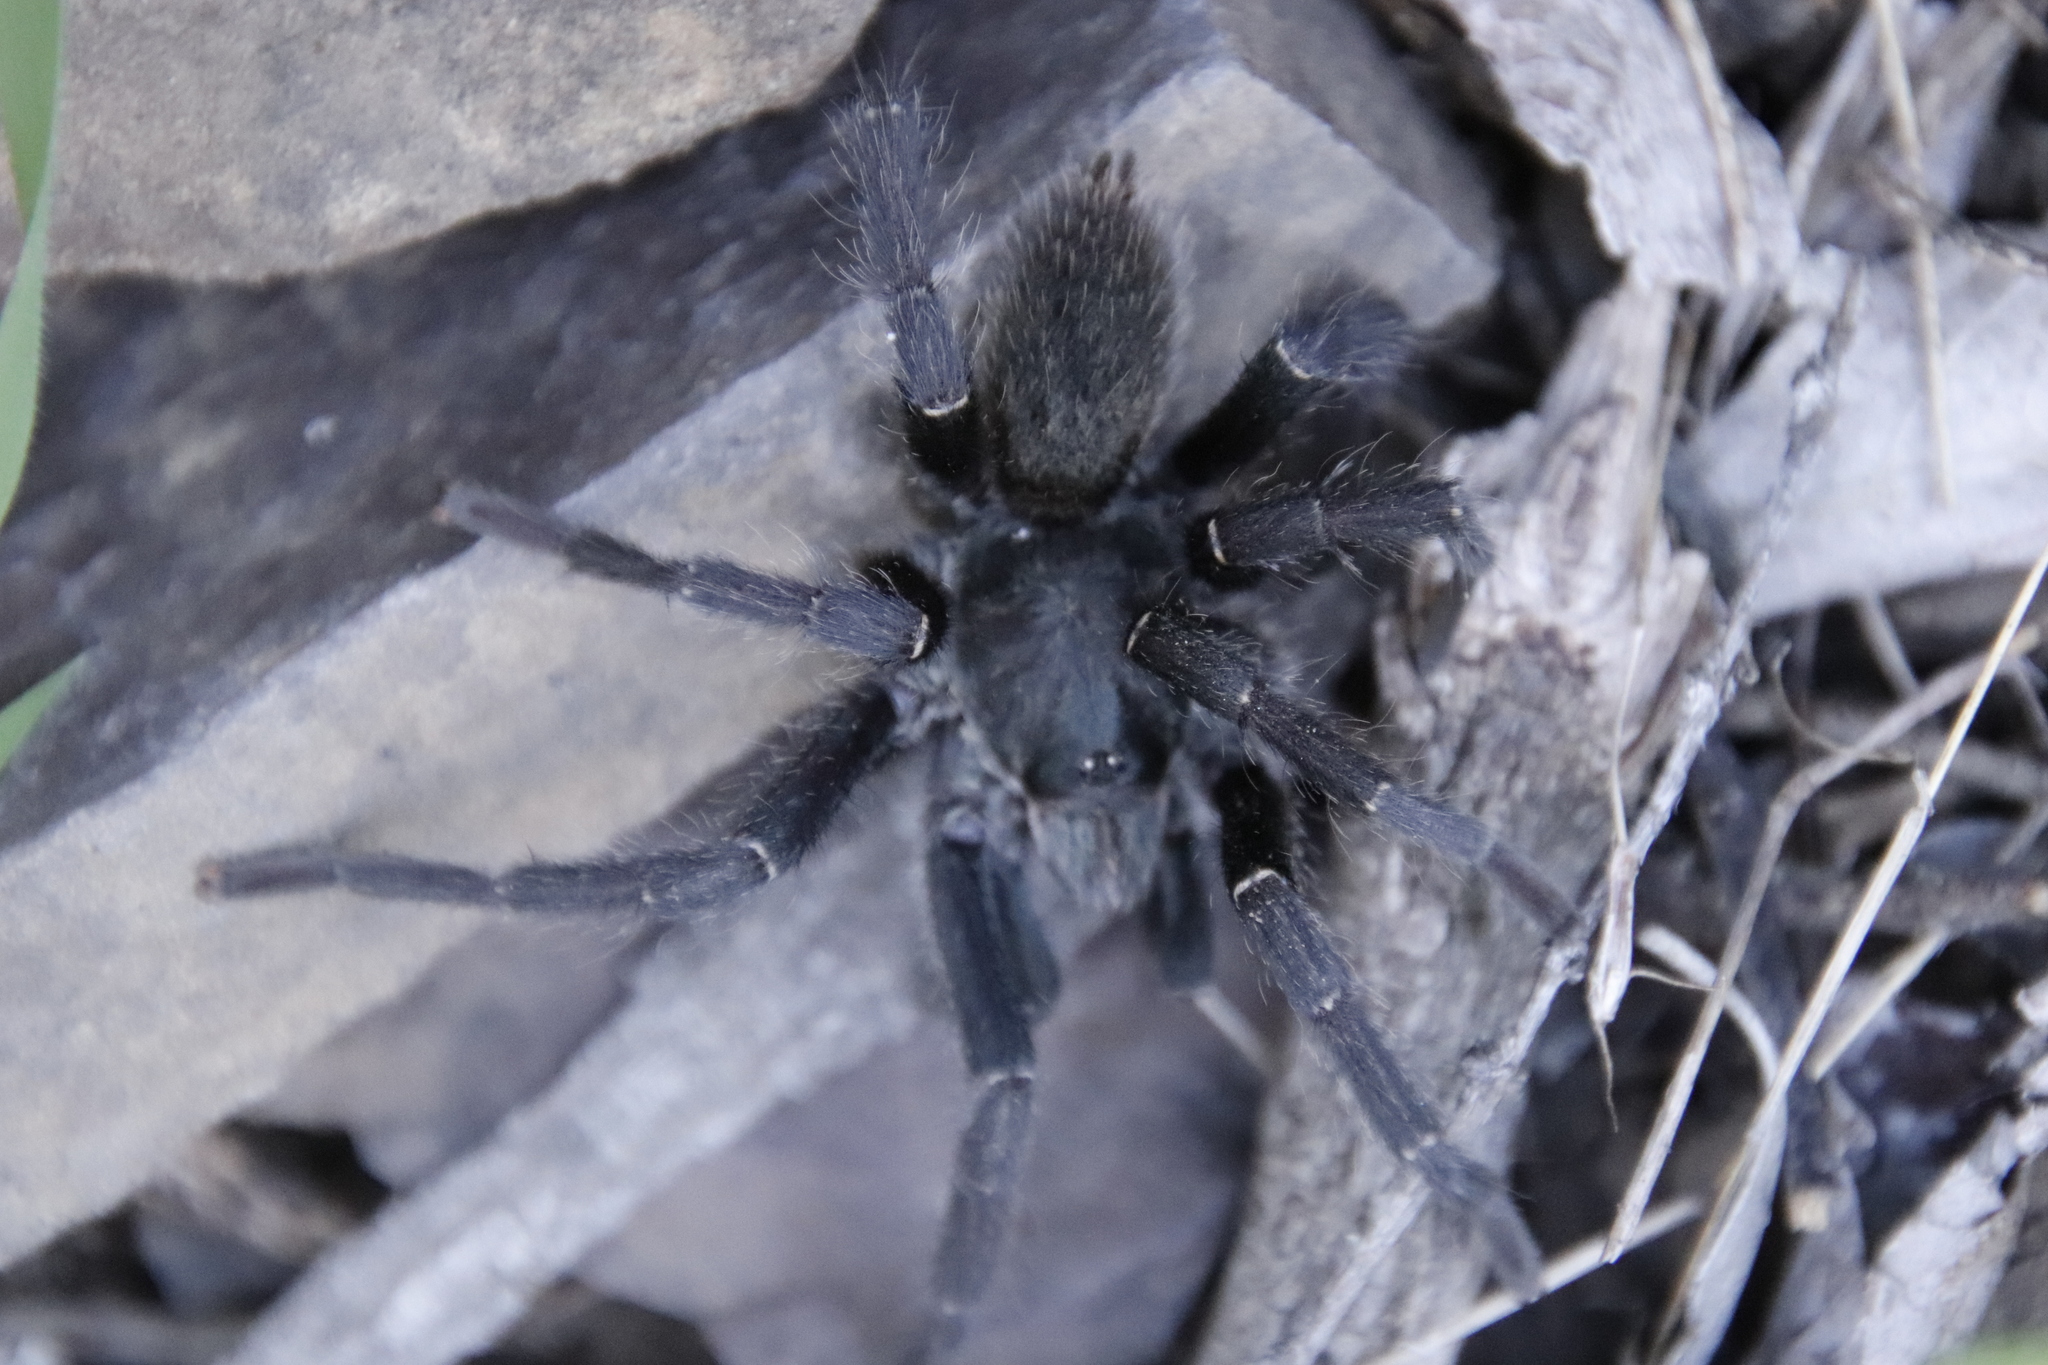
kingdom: Animalia
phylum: Arthropoda
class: Arachnida
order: Araneae
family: Theraphosidae
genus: Harpactira
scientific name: Harpactira marksi
